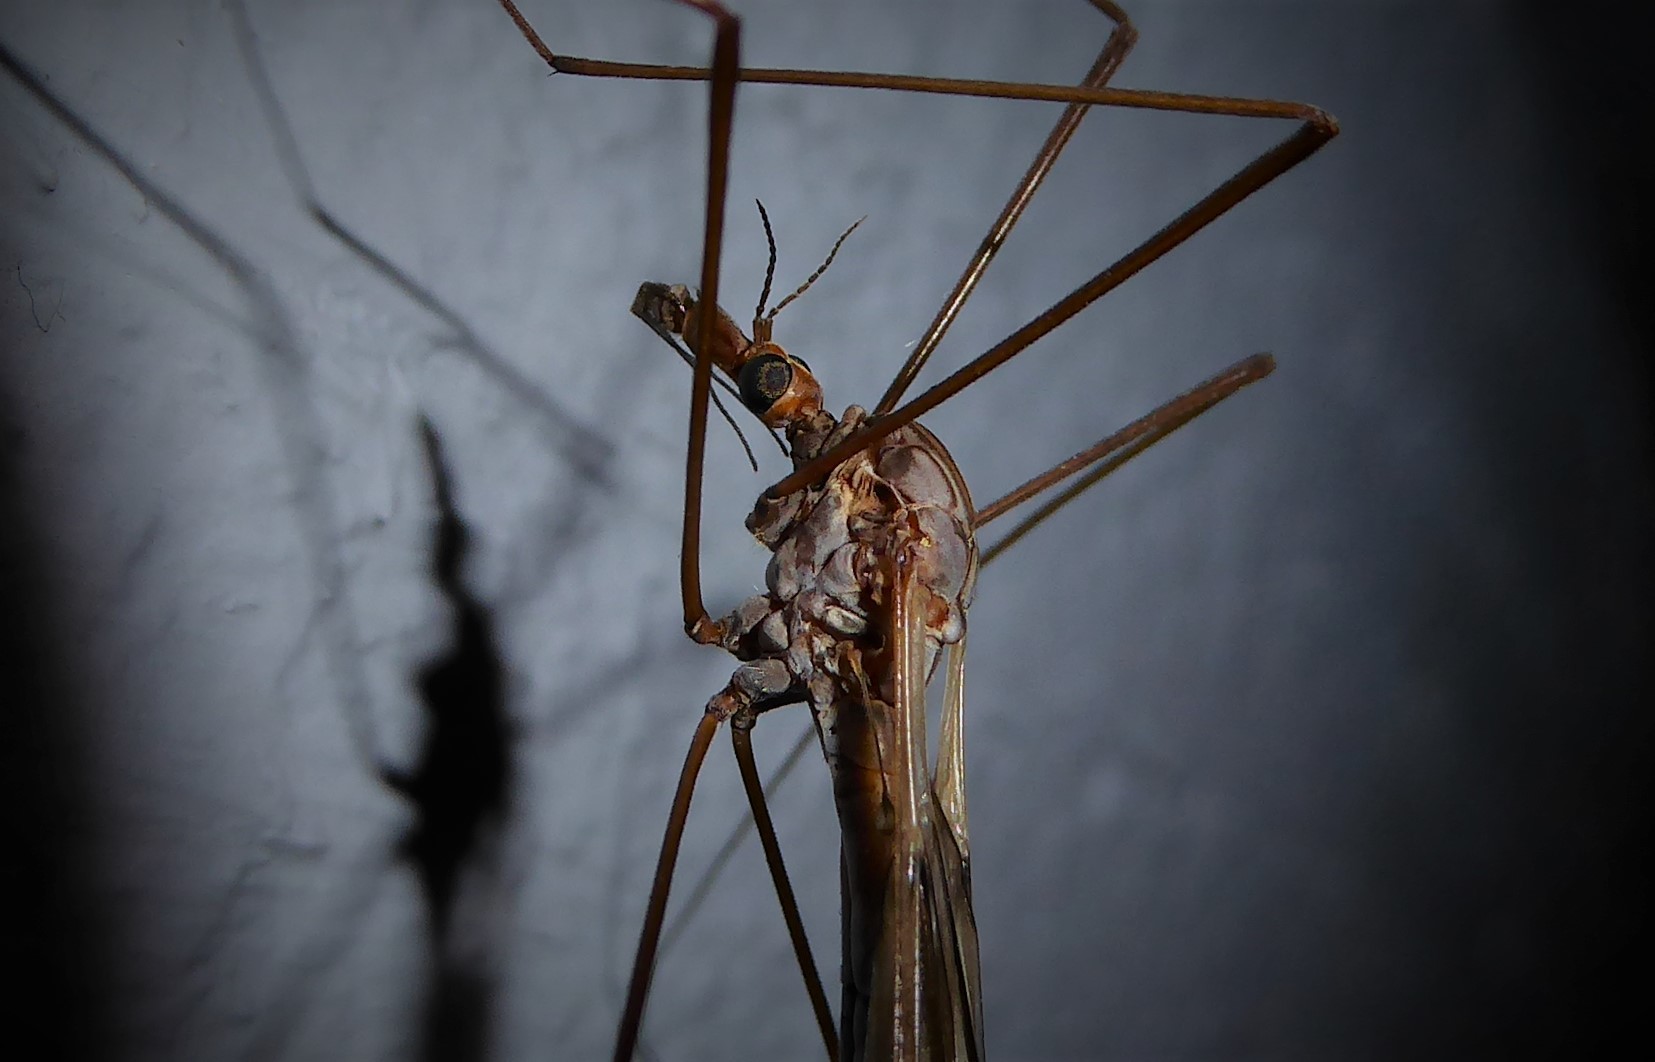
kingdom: Animalia
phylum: Arthropoda
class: Insecta
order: Diptera
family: Tipulidae
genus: Zelandotipula
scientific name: Zelandotipula novarae
